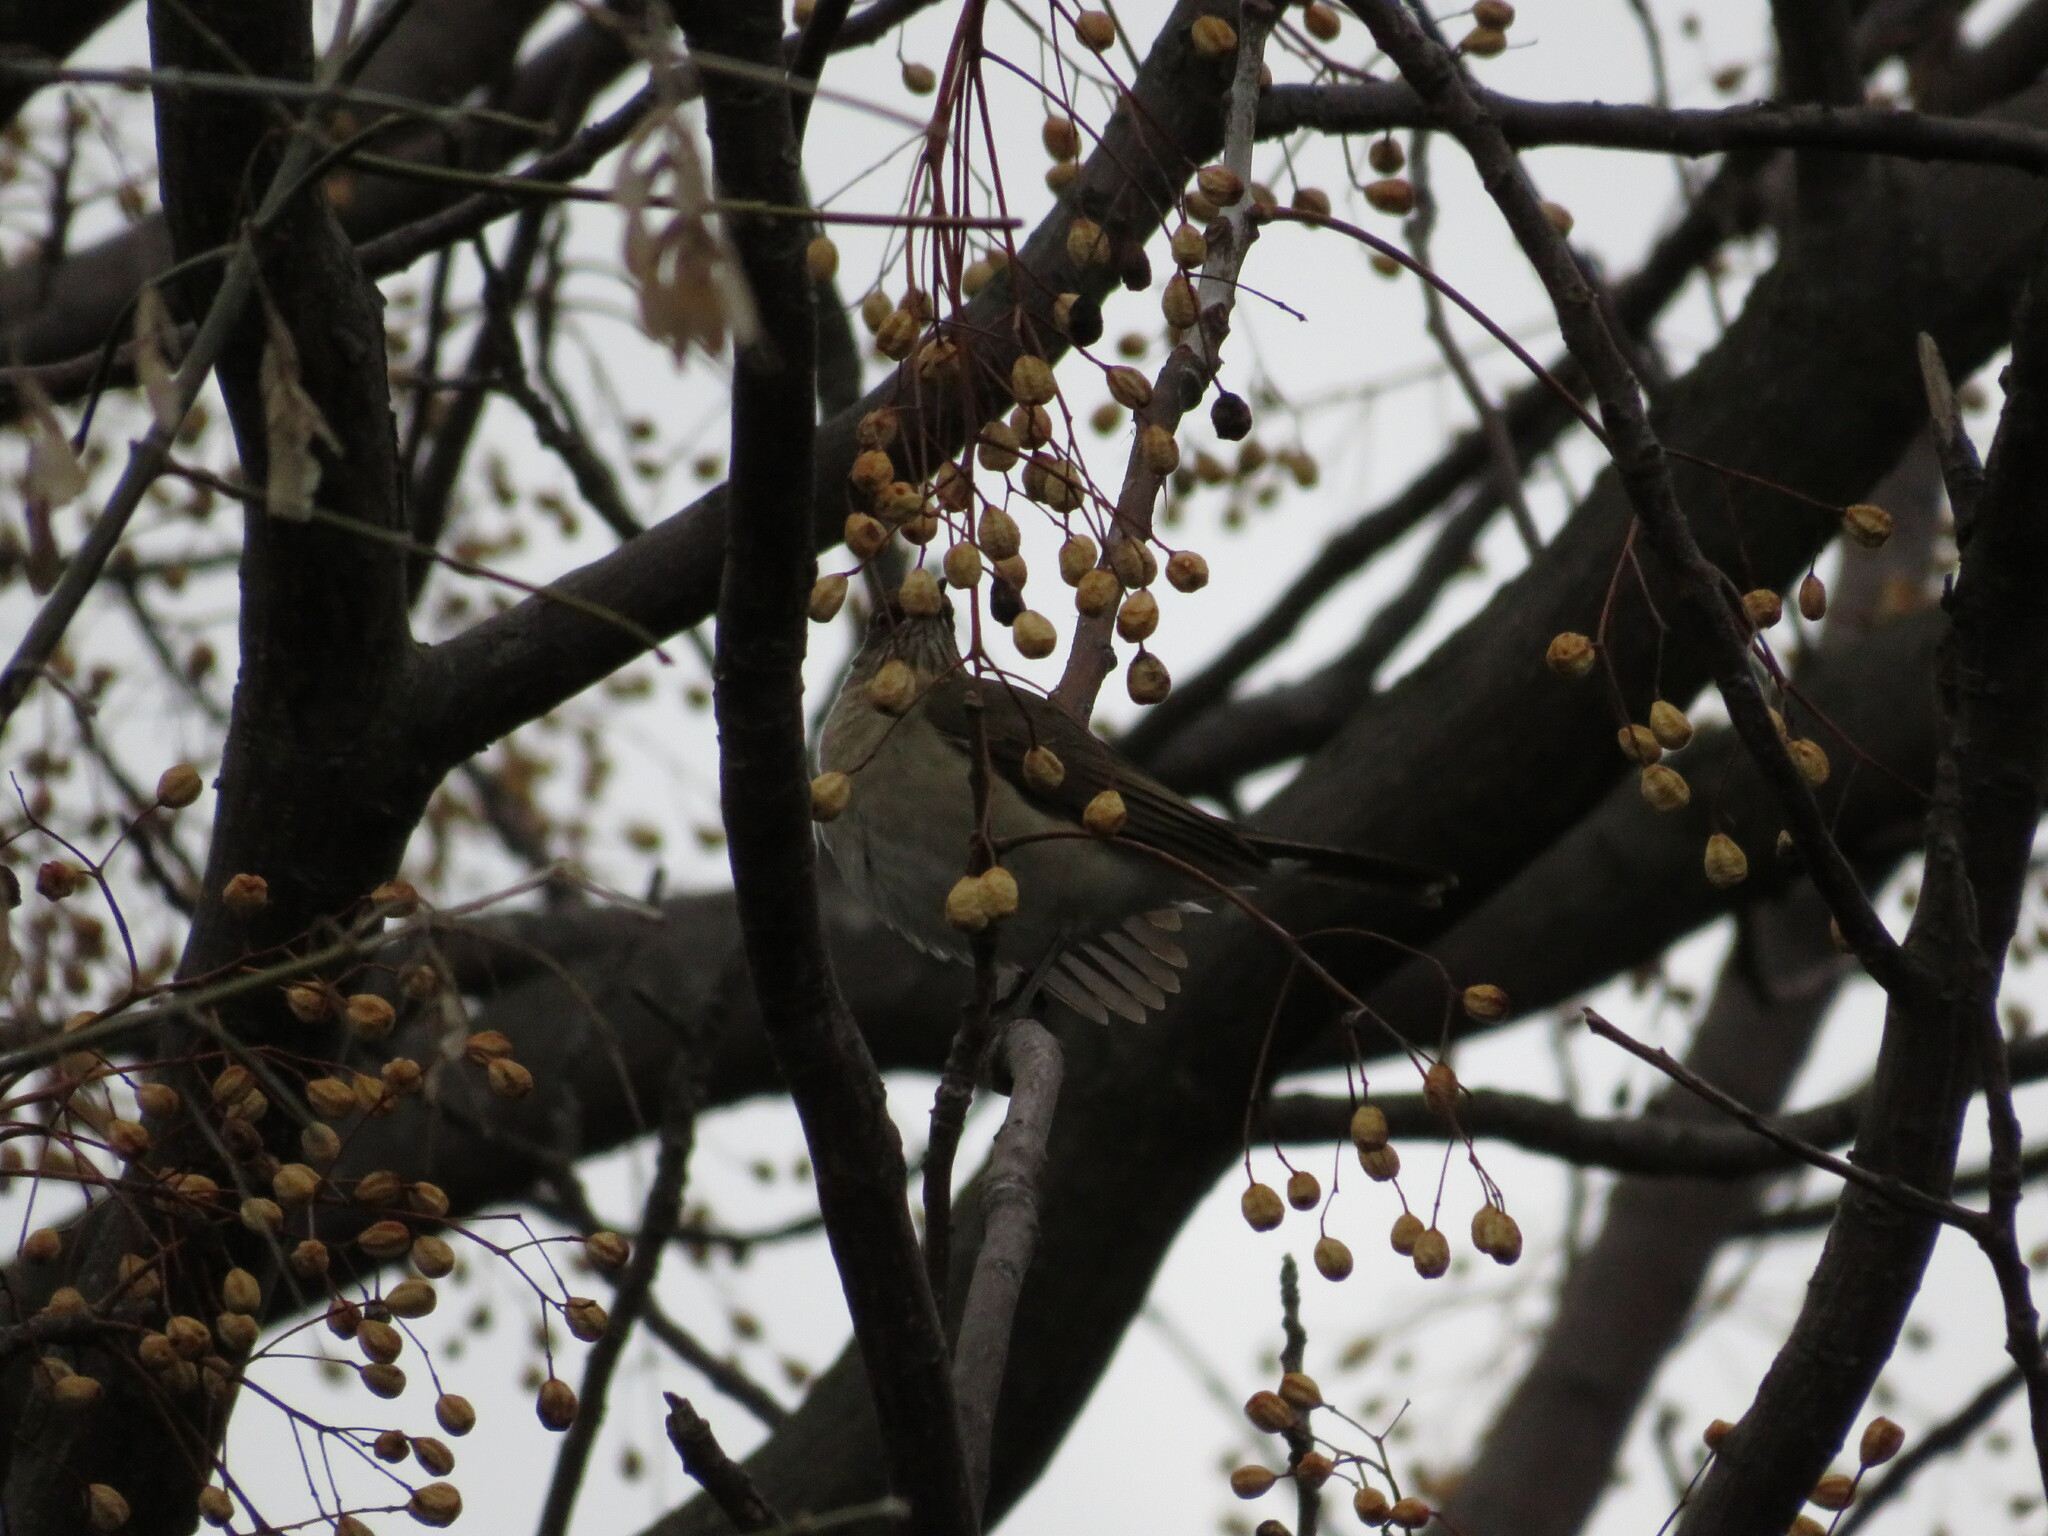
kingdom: Animalia
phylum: Chordata
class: Aves
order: Passeriformes
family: Turdidae
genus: Turdus
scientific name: Turdus amaurochalinus
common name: Creamy-bellied thrush
